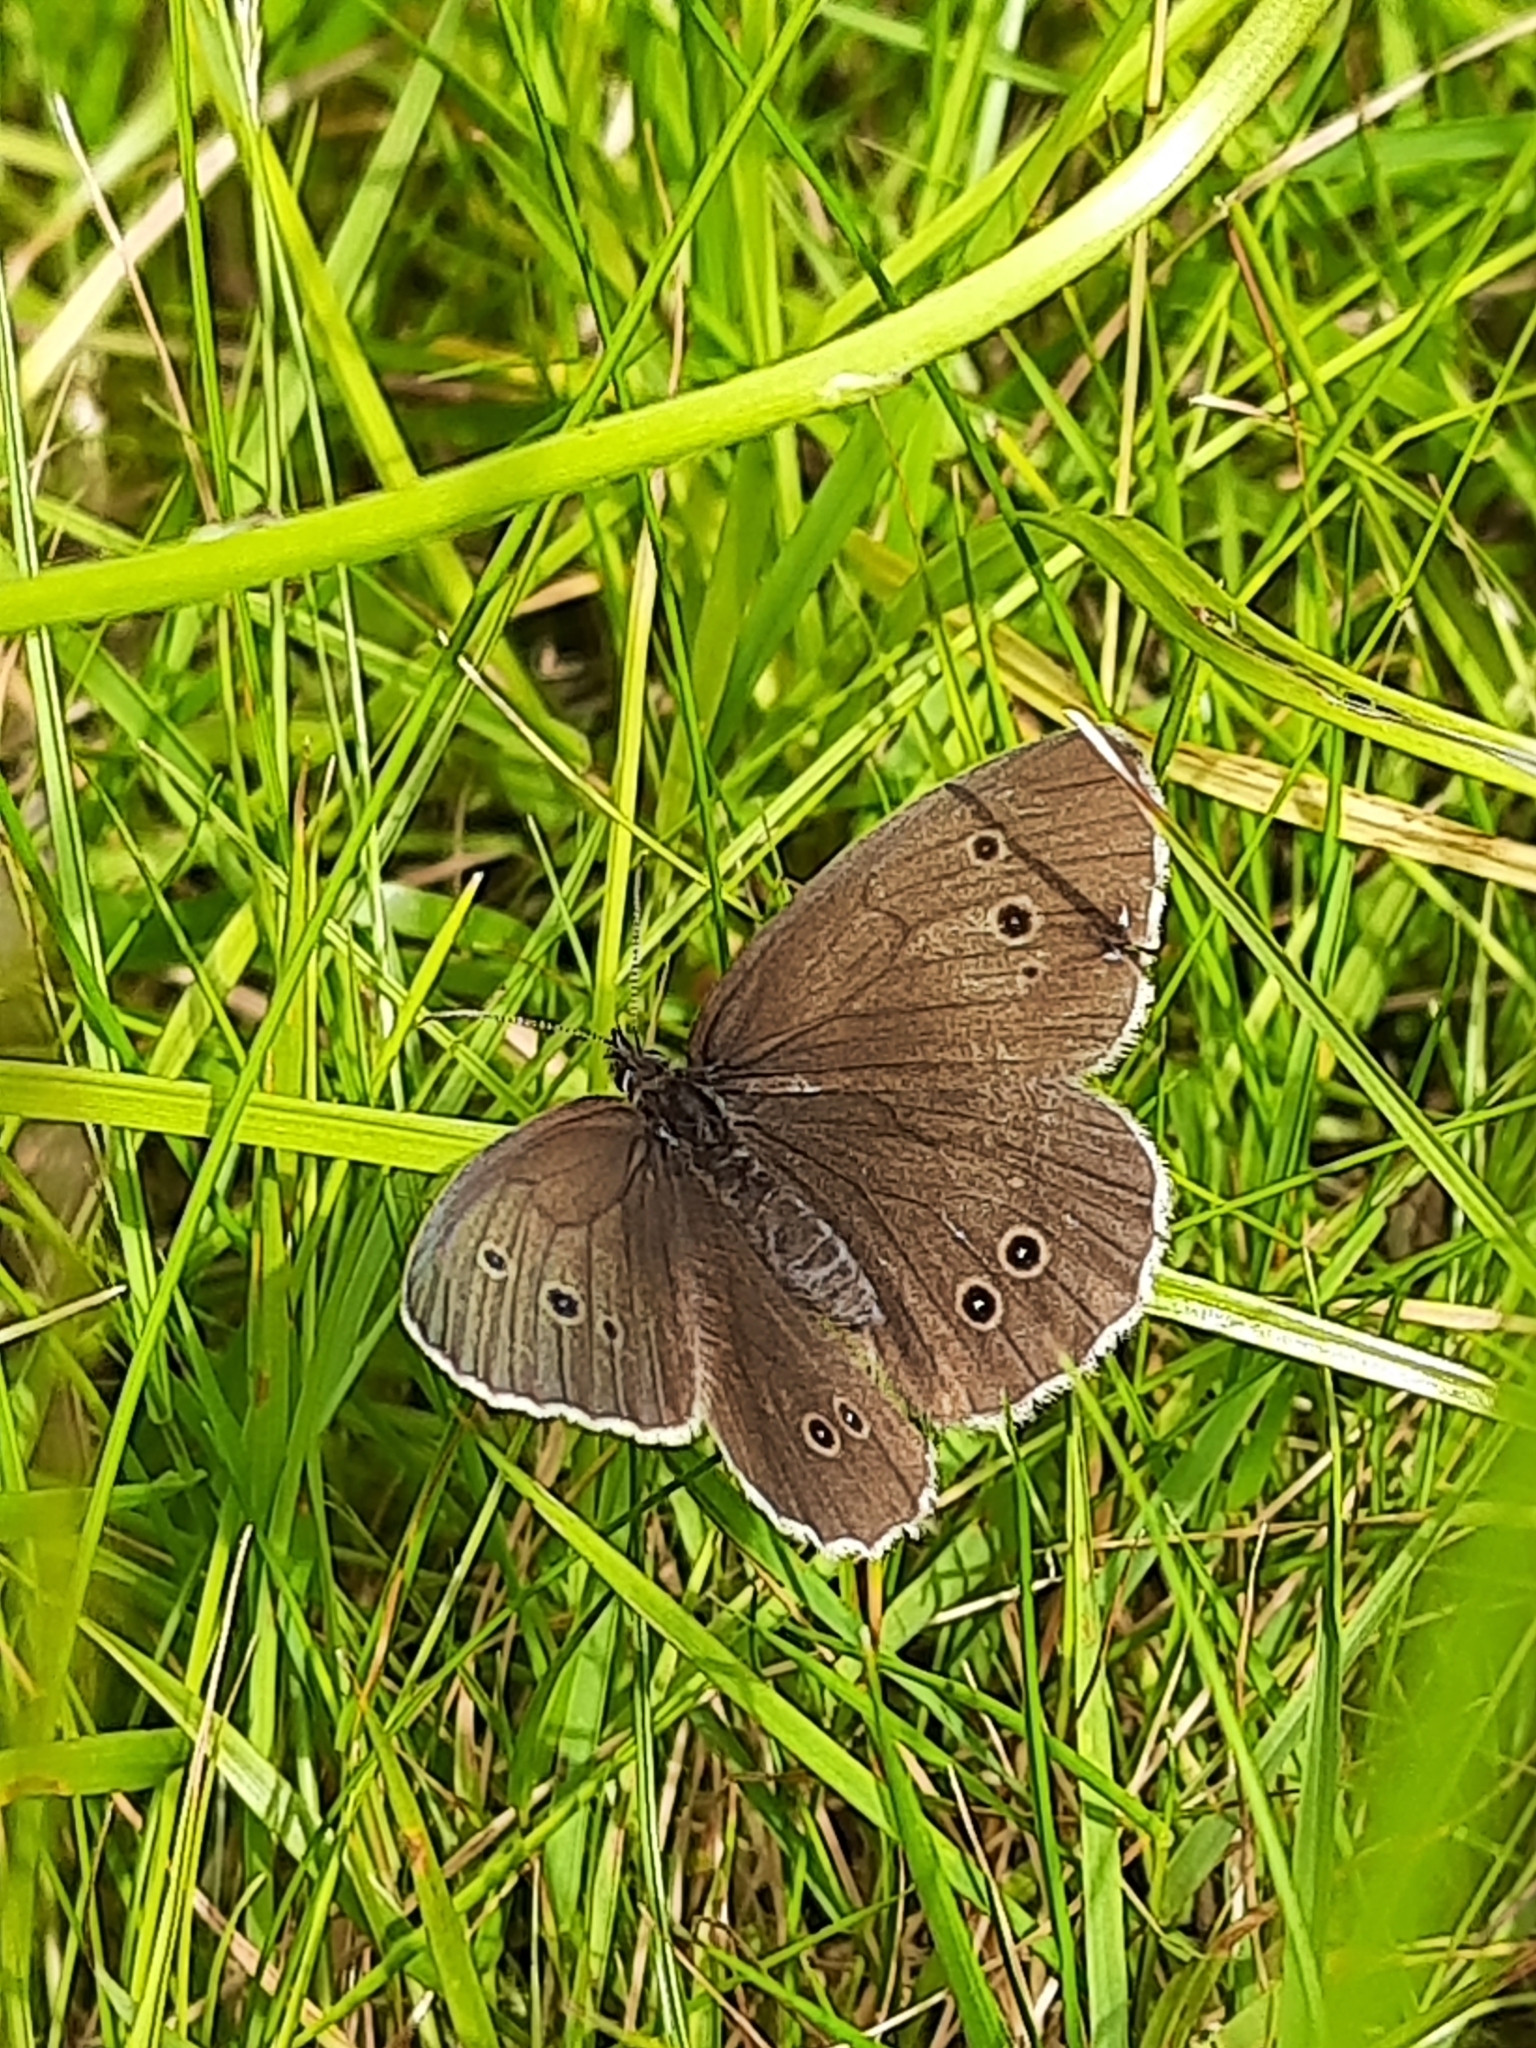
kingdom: Animalia
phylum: Arthropoda
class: Insecta
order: Lepidoptera
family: Nymphalidae
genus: Aphantopus
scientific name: Aphantopus hyperantus
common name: Ringlet
